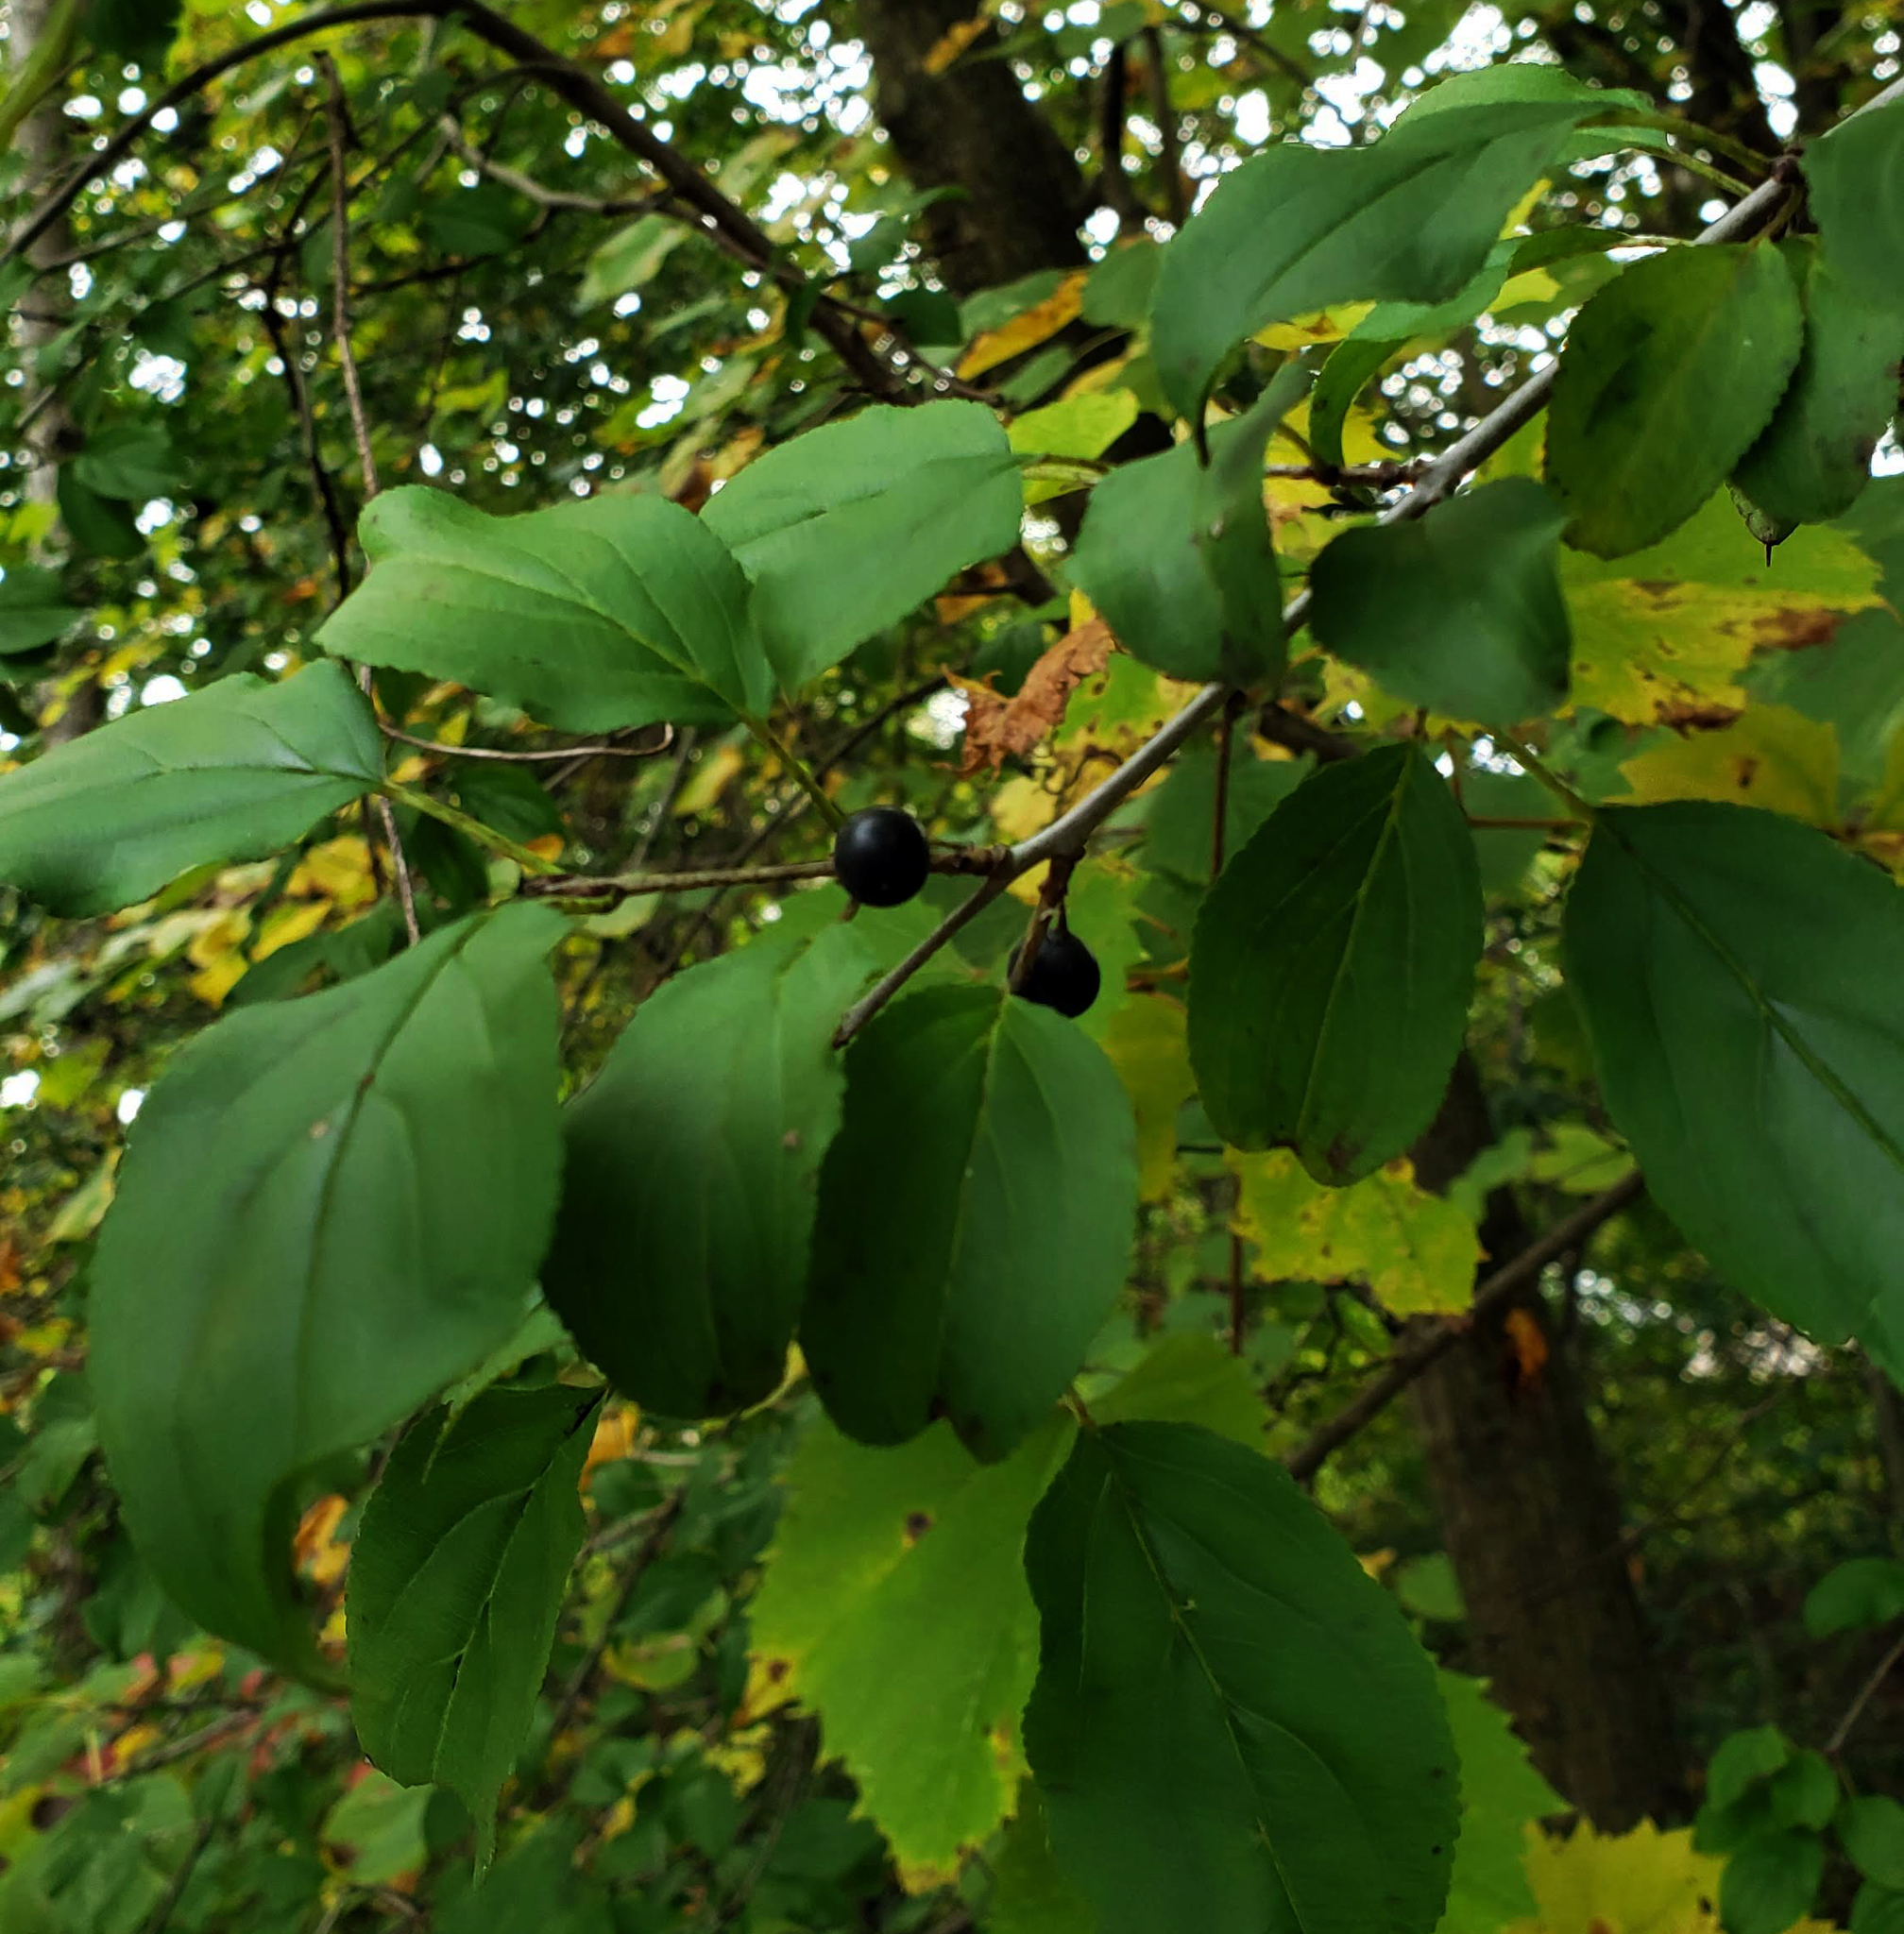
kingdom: Plantae
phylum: Tracheophyta
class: Magnoliopsida
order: Rosales
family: Rhamnaceae
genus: Rhamnus
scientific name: Rhamnus cathartica
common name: Common buckthorn
